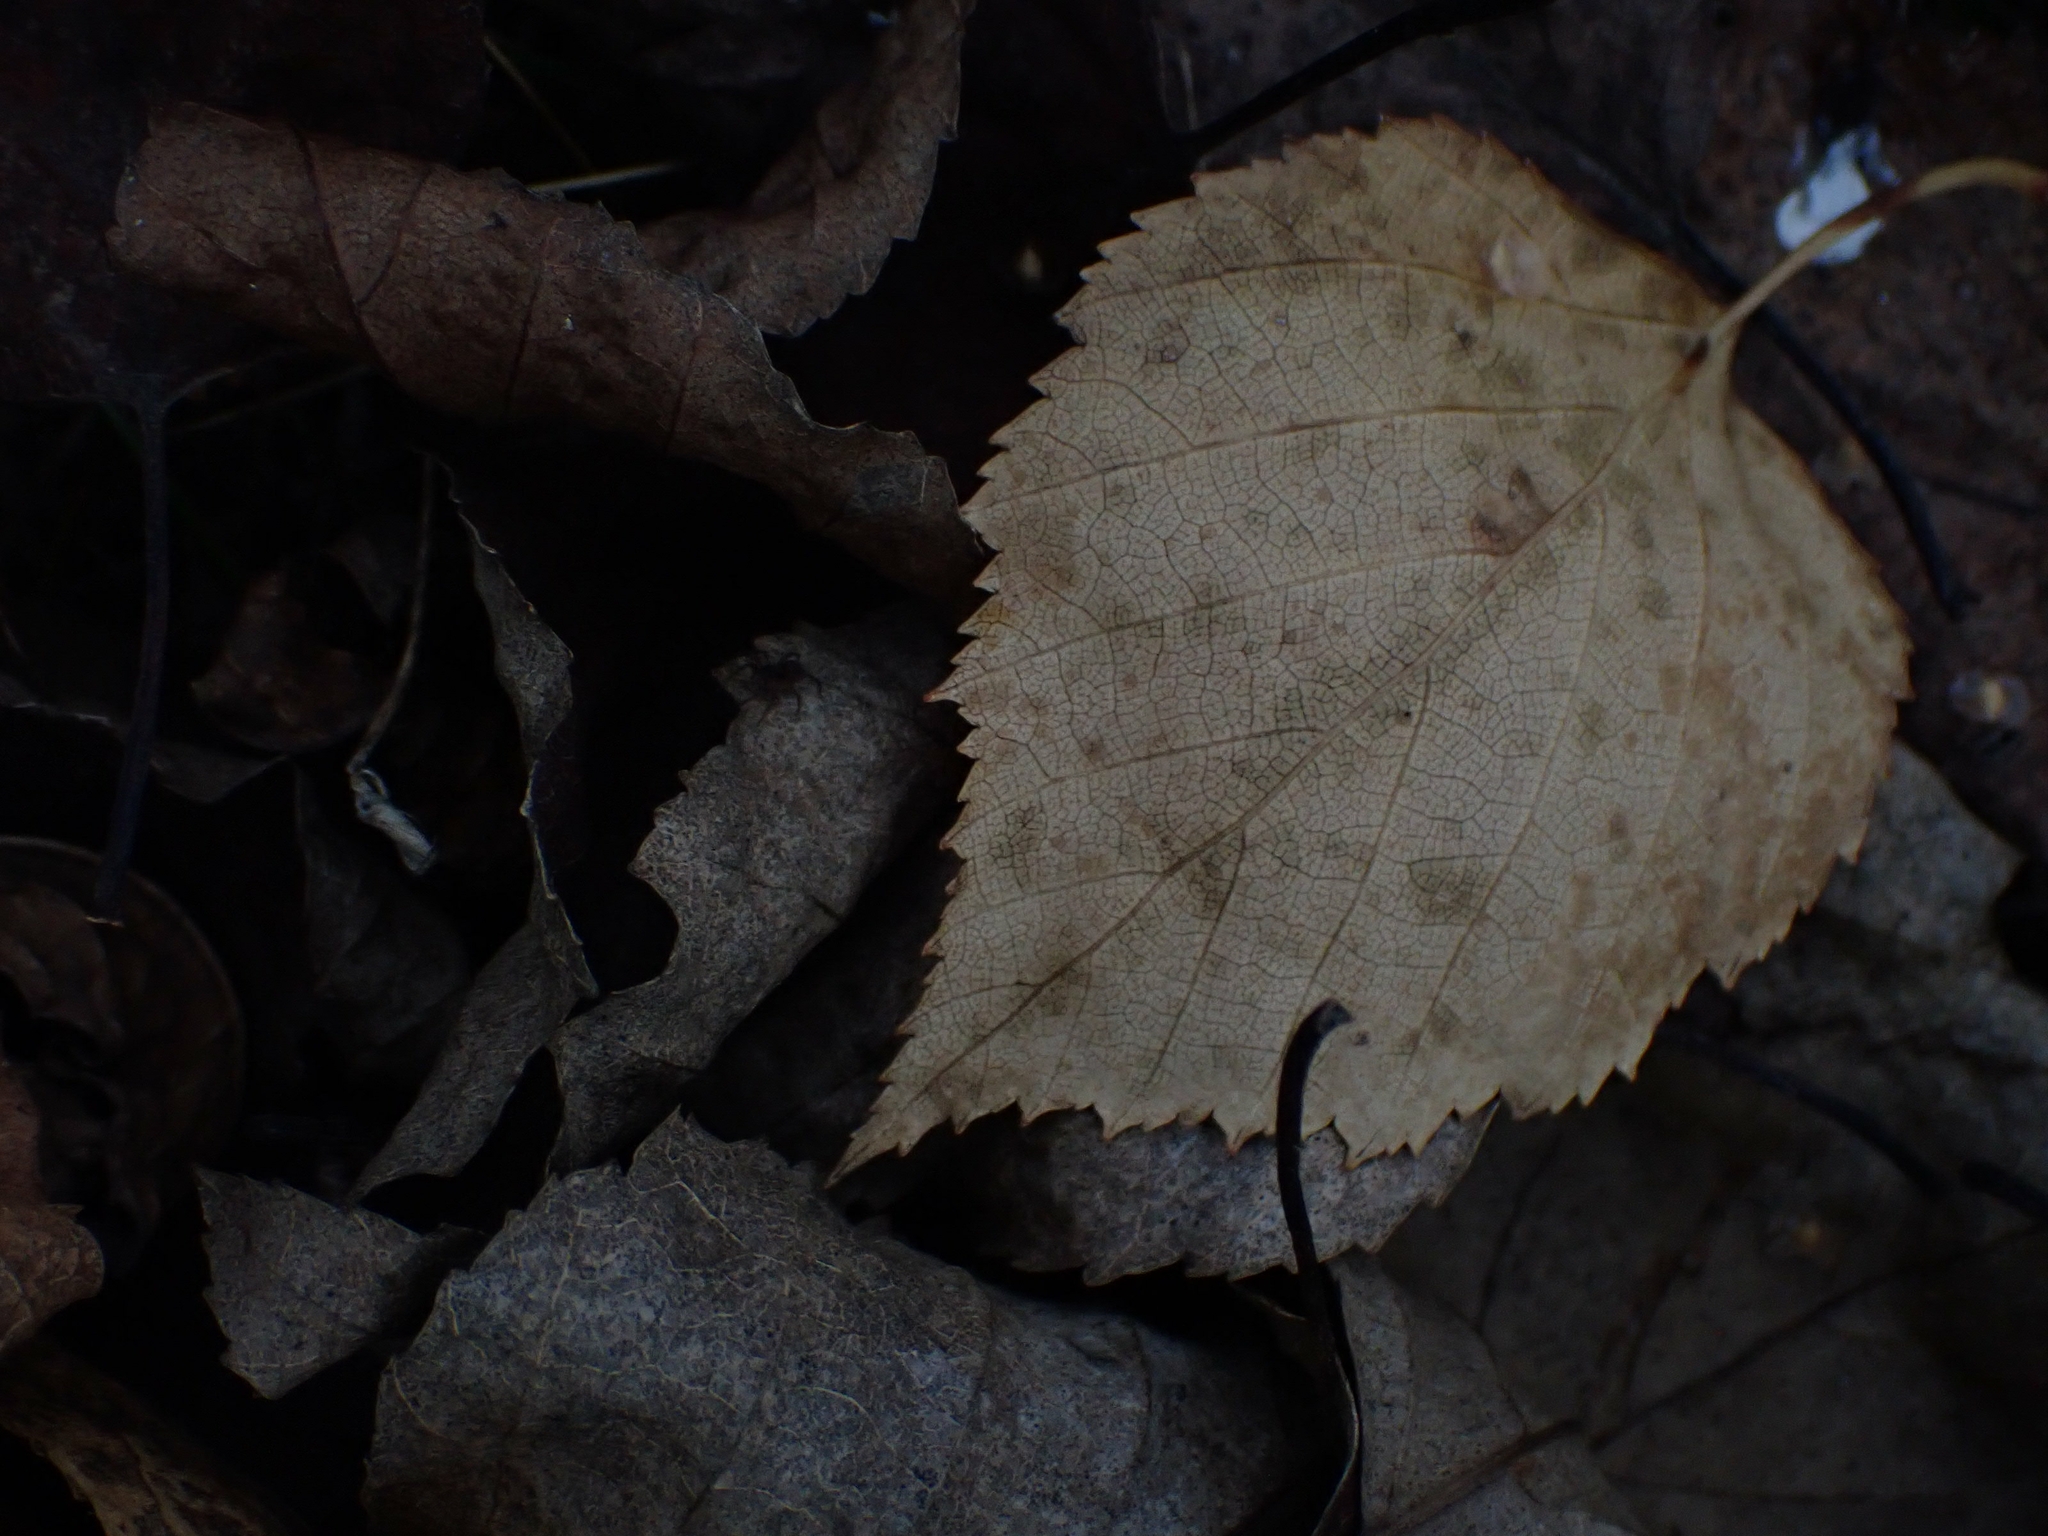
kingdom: Plantae
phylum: Tracheophyta
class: Magnoliopsida
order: Fagales
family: Betulaceae
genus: Betula
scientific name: Betula papyrifera
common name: Paper birch
